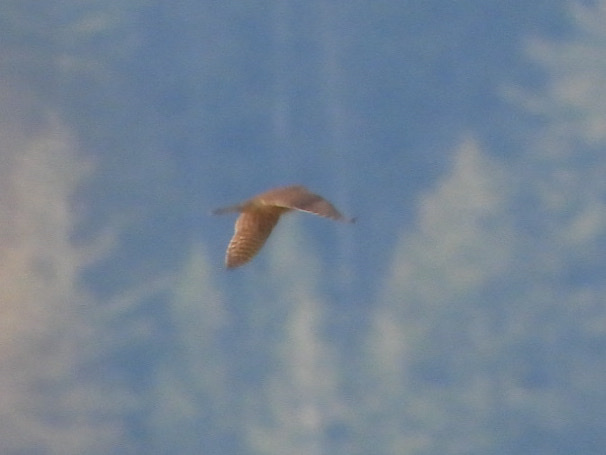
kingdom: Animalia
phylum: Chordata
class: Aves
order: Falconiformes
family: Falconidae
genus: Falco
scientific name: Falco columbarius
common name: Merlin
